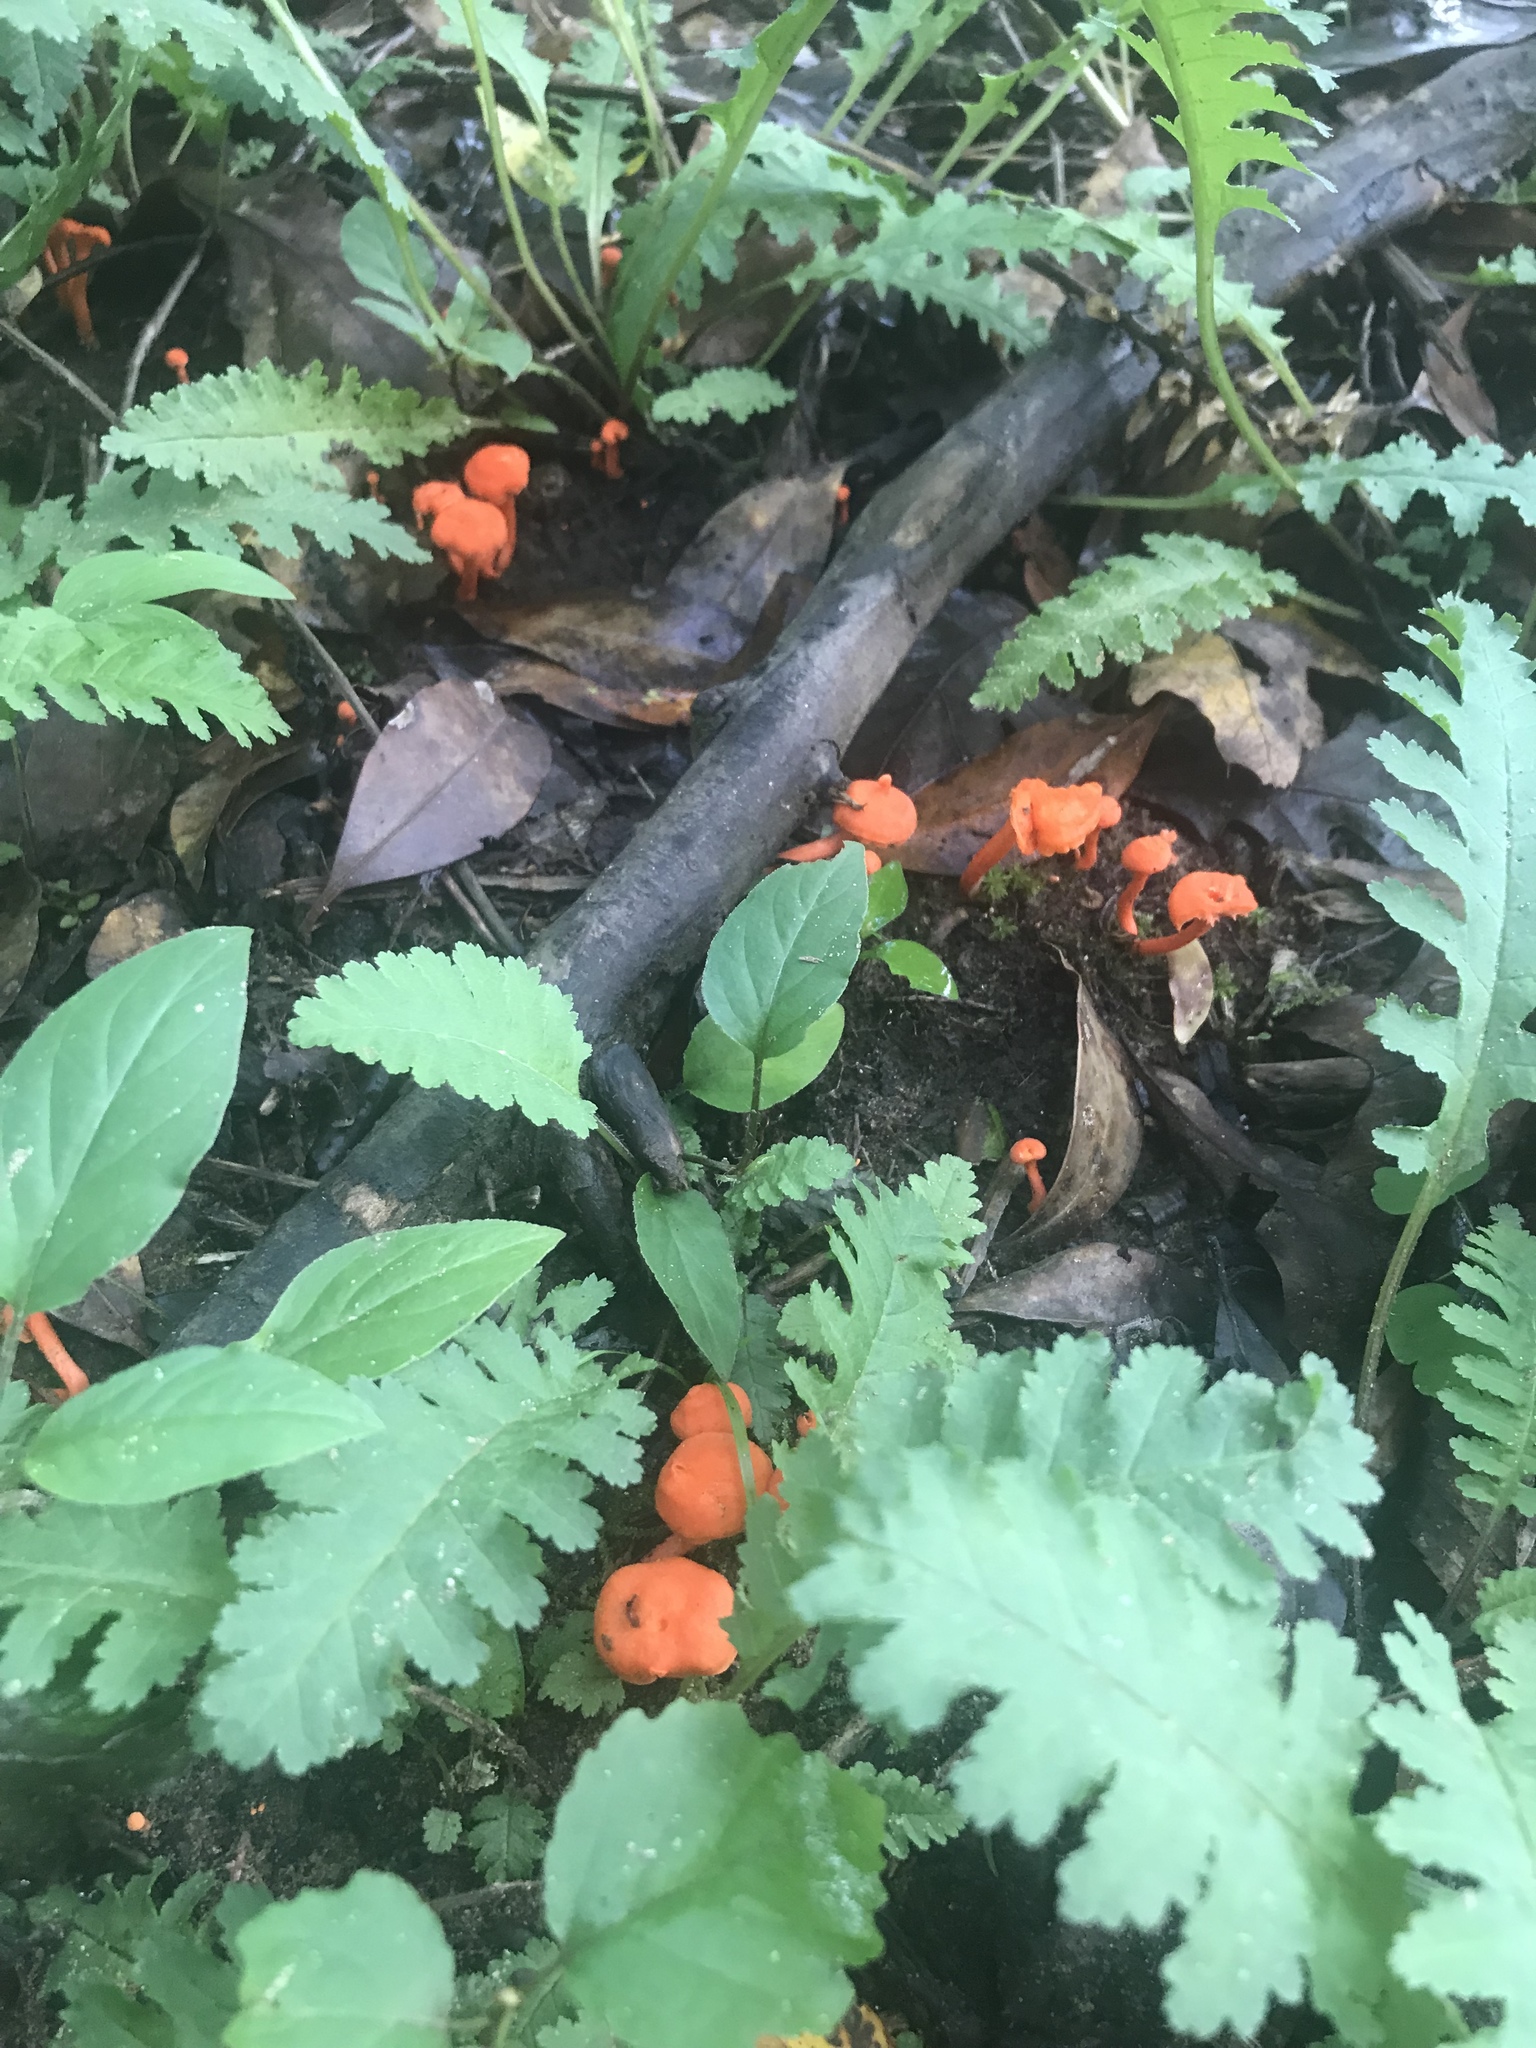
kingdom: Fungi
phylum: Basidiomycota
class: Agaricomycetes
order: Cantharellales
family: Hydnaceae
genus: Cantharellus
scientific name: Cantharellus cinnabarinus
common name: Cinnabar chanterelle
